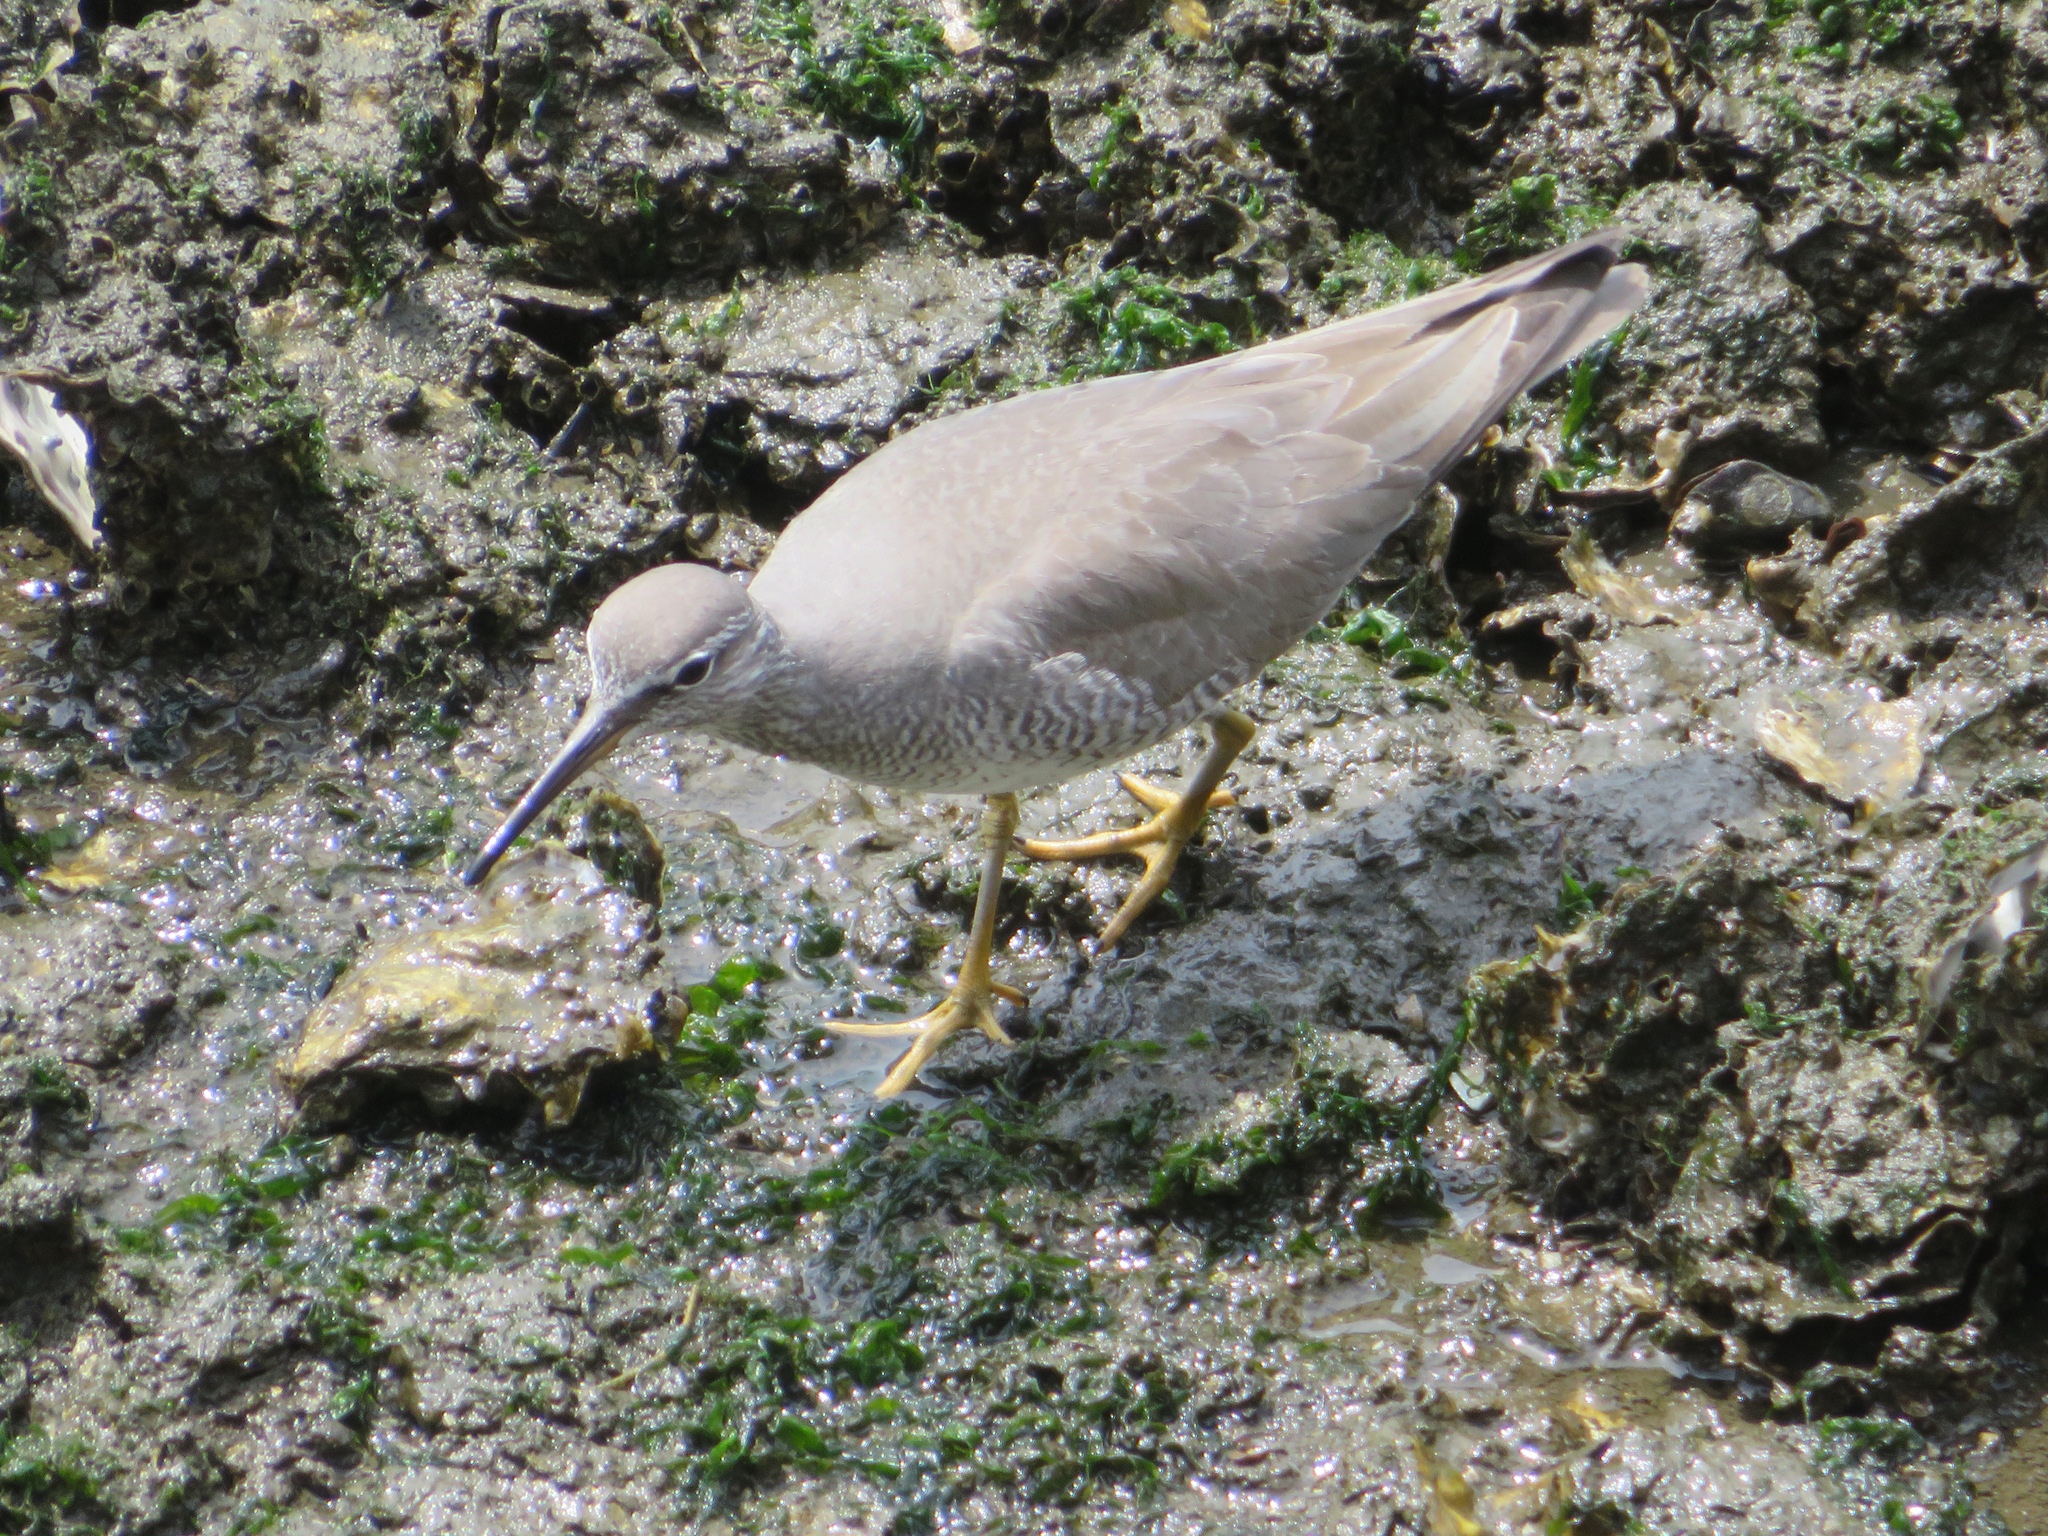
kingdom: Animalia
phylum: Chordata
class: Aves
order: Charadriiformes
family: Scolopacidae
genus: Tringa
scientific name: Tringa brevipes
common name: Grey-tailed tattler
